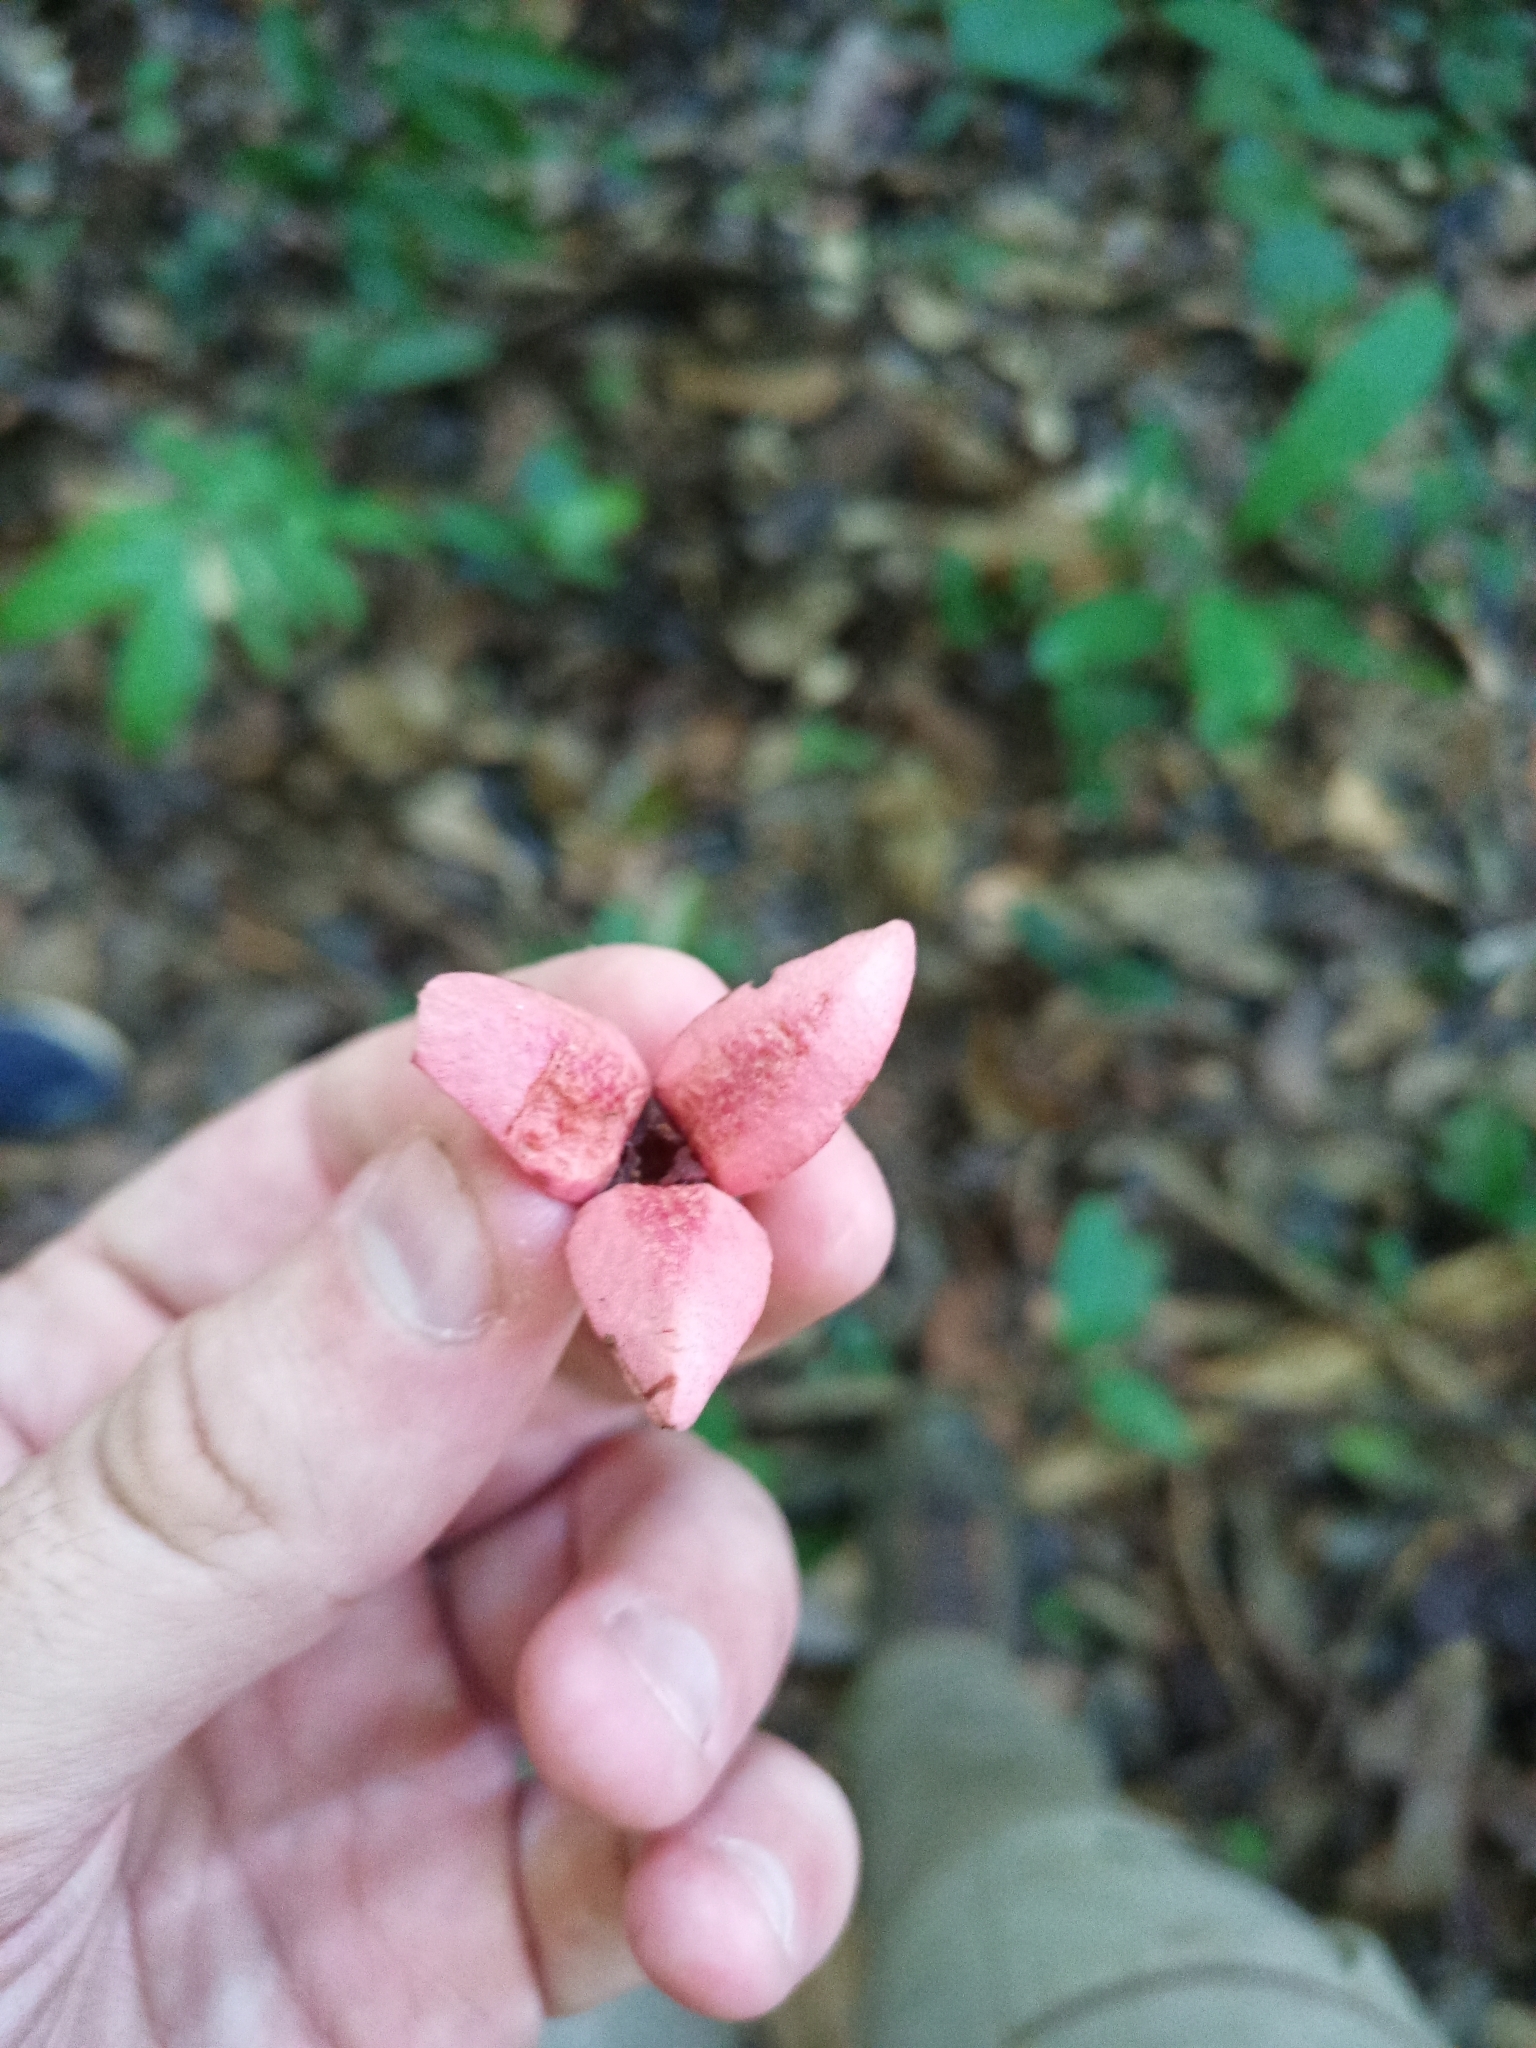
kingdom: Plantae
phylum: Tracheophyta
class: Magnoliopsida
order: Magnoliales
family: Annonaceae
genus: Annona
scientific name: Annona ambotay
